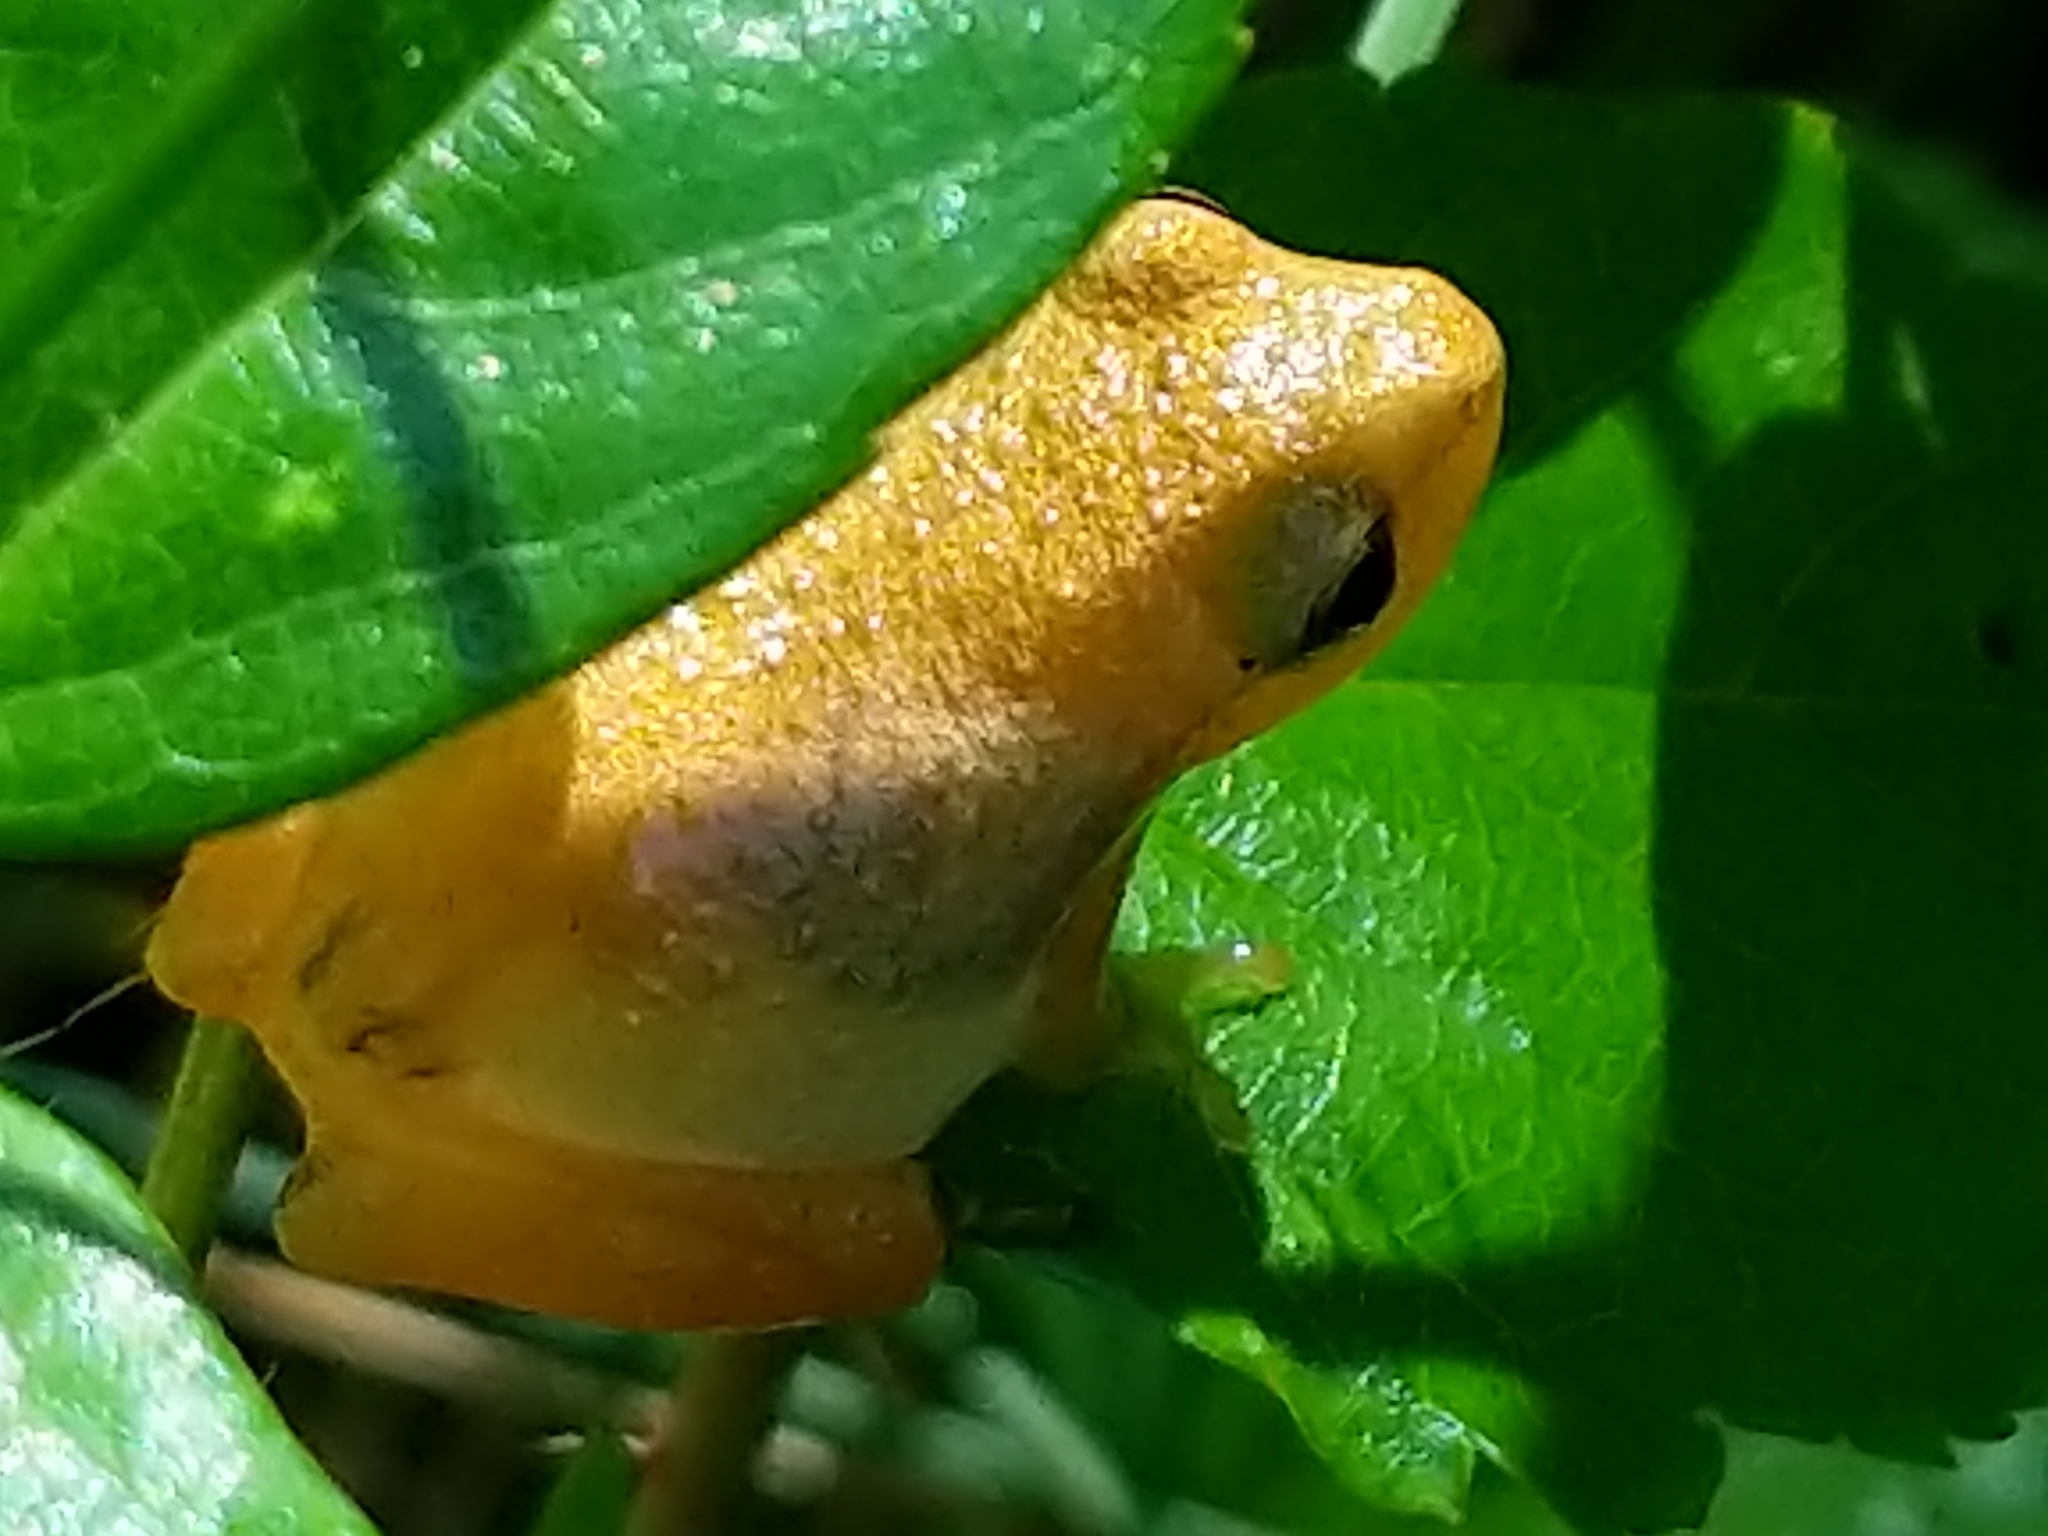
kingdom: Animalia
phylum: Chordata
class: Amphibia
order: Anura
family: Hylidae
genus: Pseudacris
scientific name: Pseudacris crucifer
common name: Spring peeper
